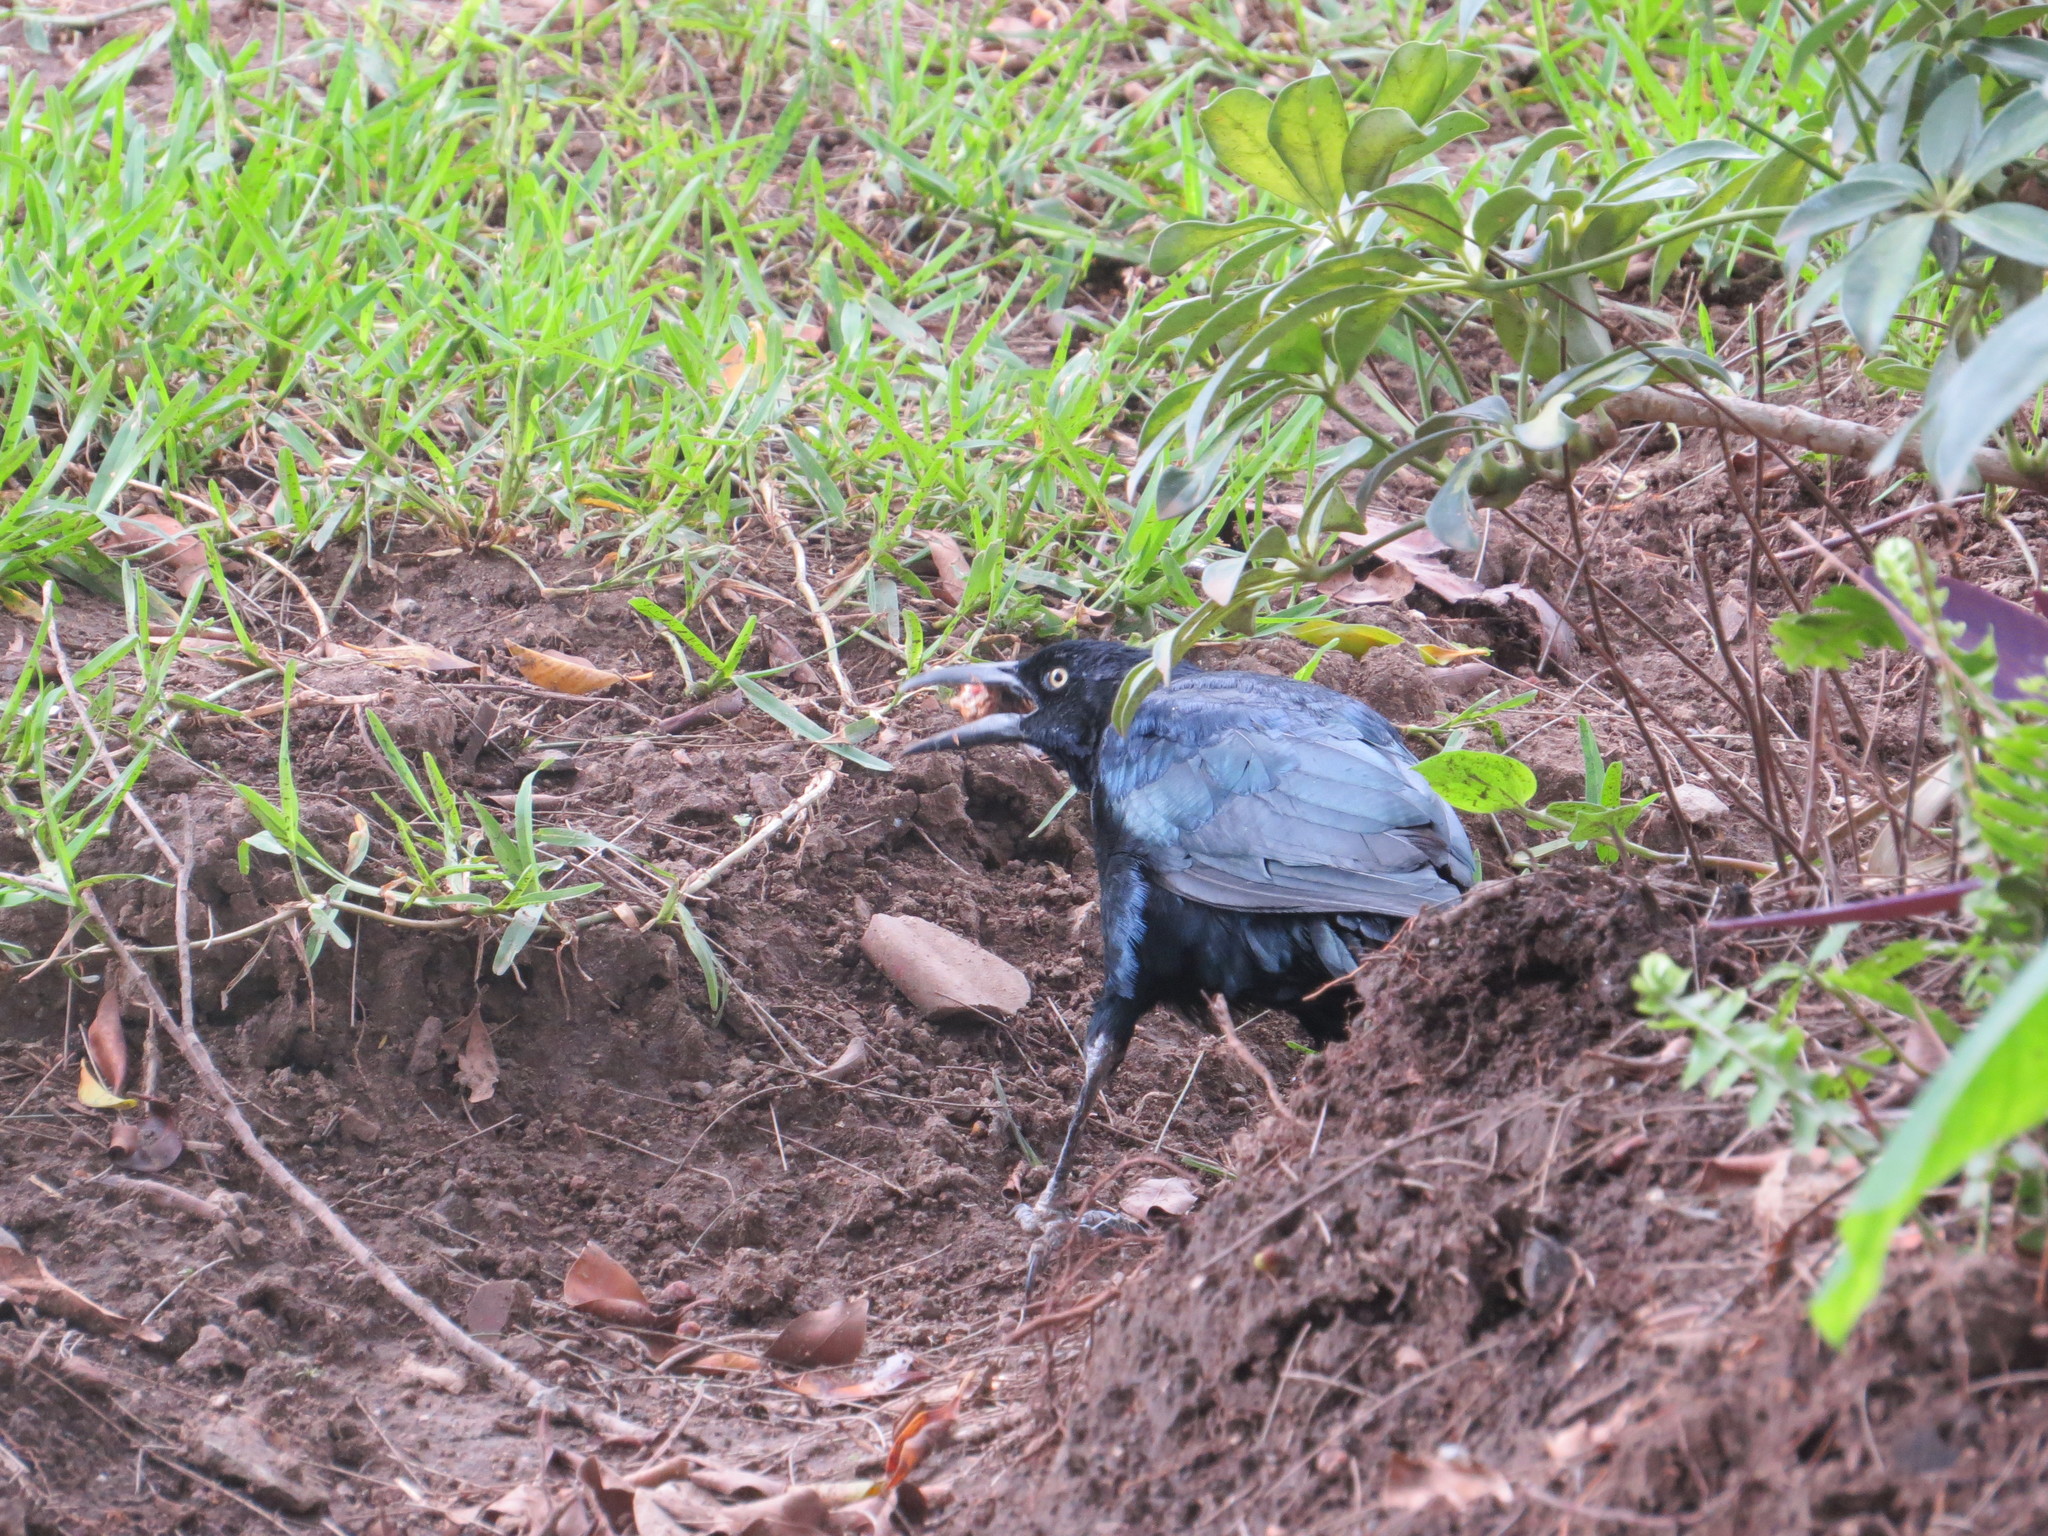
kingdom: Animalia
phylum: Chordata
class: Aves
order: Passeriformes
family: Icteridae
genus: Quiscalus
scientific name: Quiscalus mexicanus
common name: Great-tailed grackle
